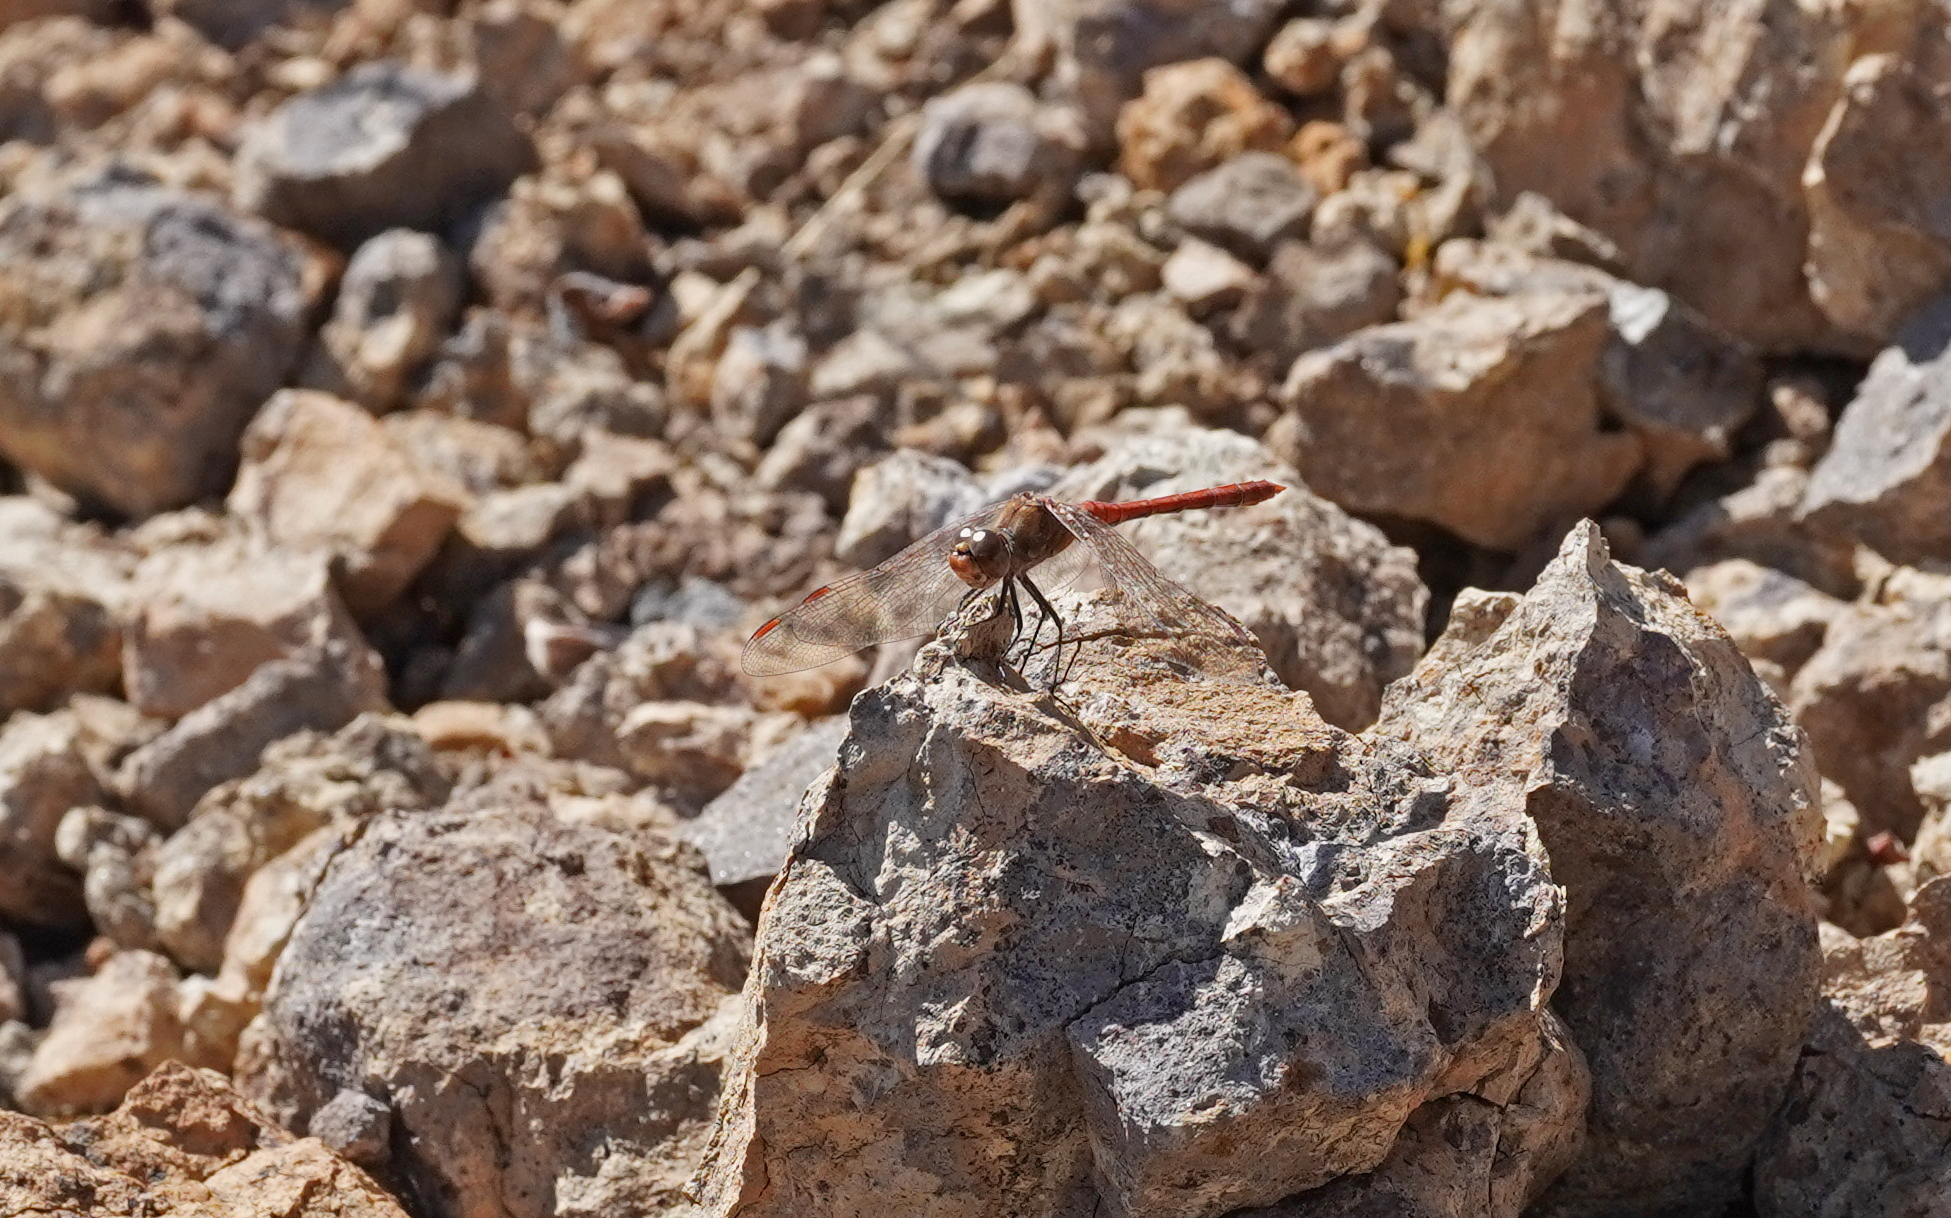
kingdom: Animalia
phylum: Arthropoda
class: Insecta
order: Odonata
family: Libellulidae
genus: Sympetrum
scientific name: Sympetrum nigrifemur
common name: Island darter
